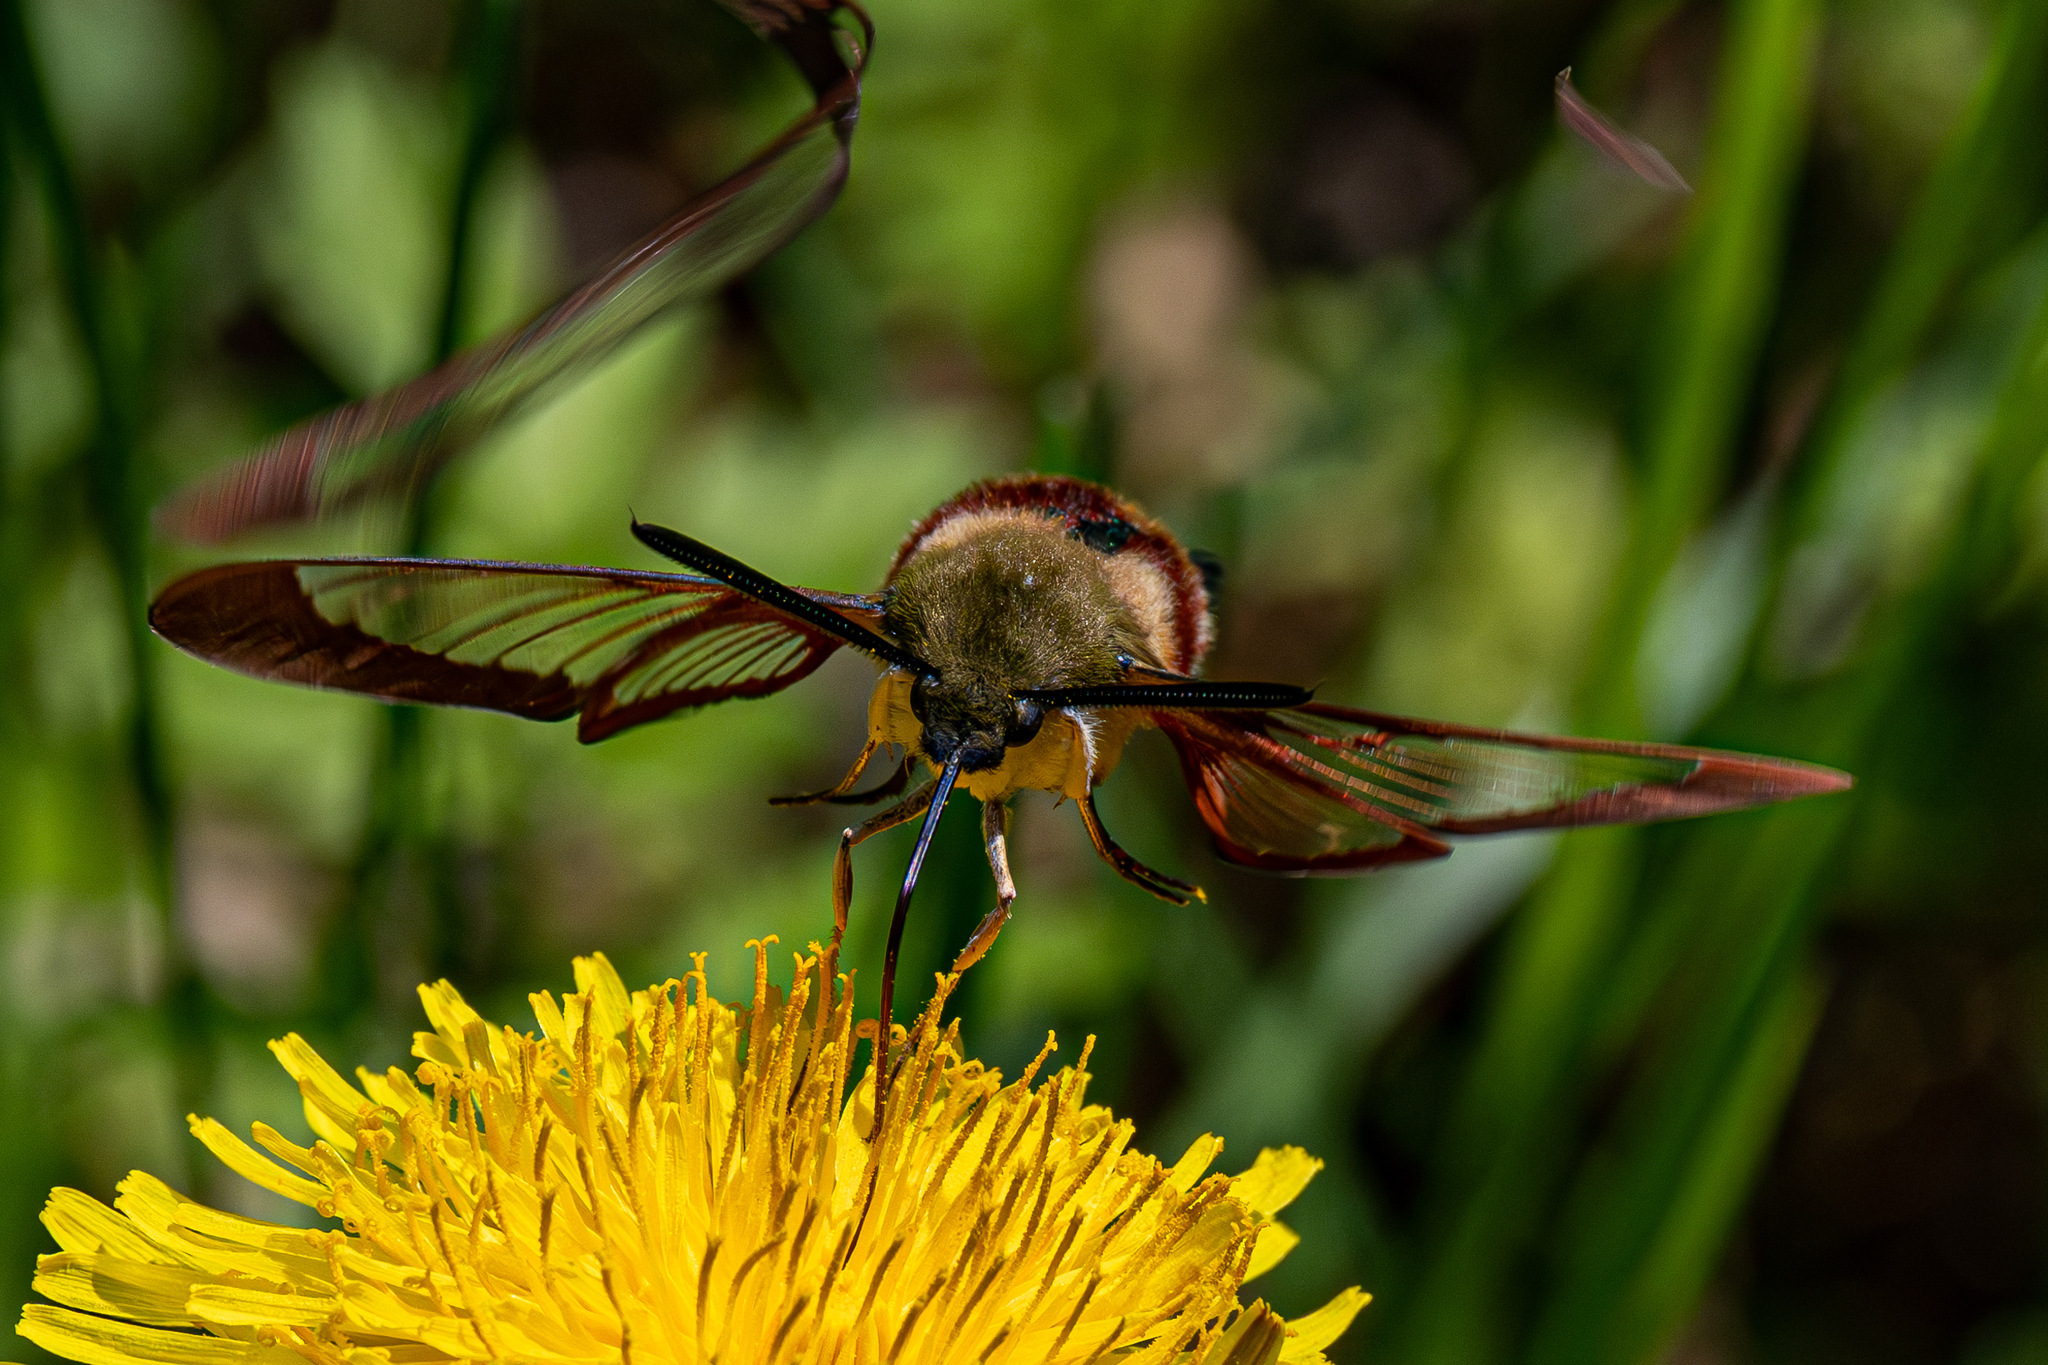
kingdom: Animalia
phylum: Arthropoda
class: Insecta
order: Lepidoptera
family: Sphingidae
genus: Hemaris
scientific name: Hemaris thysbe
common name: Common clear-wing
